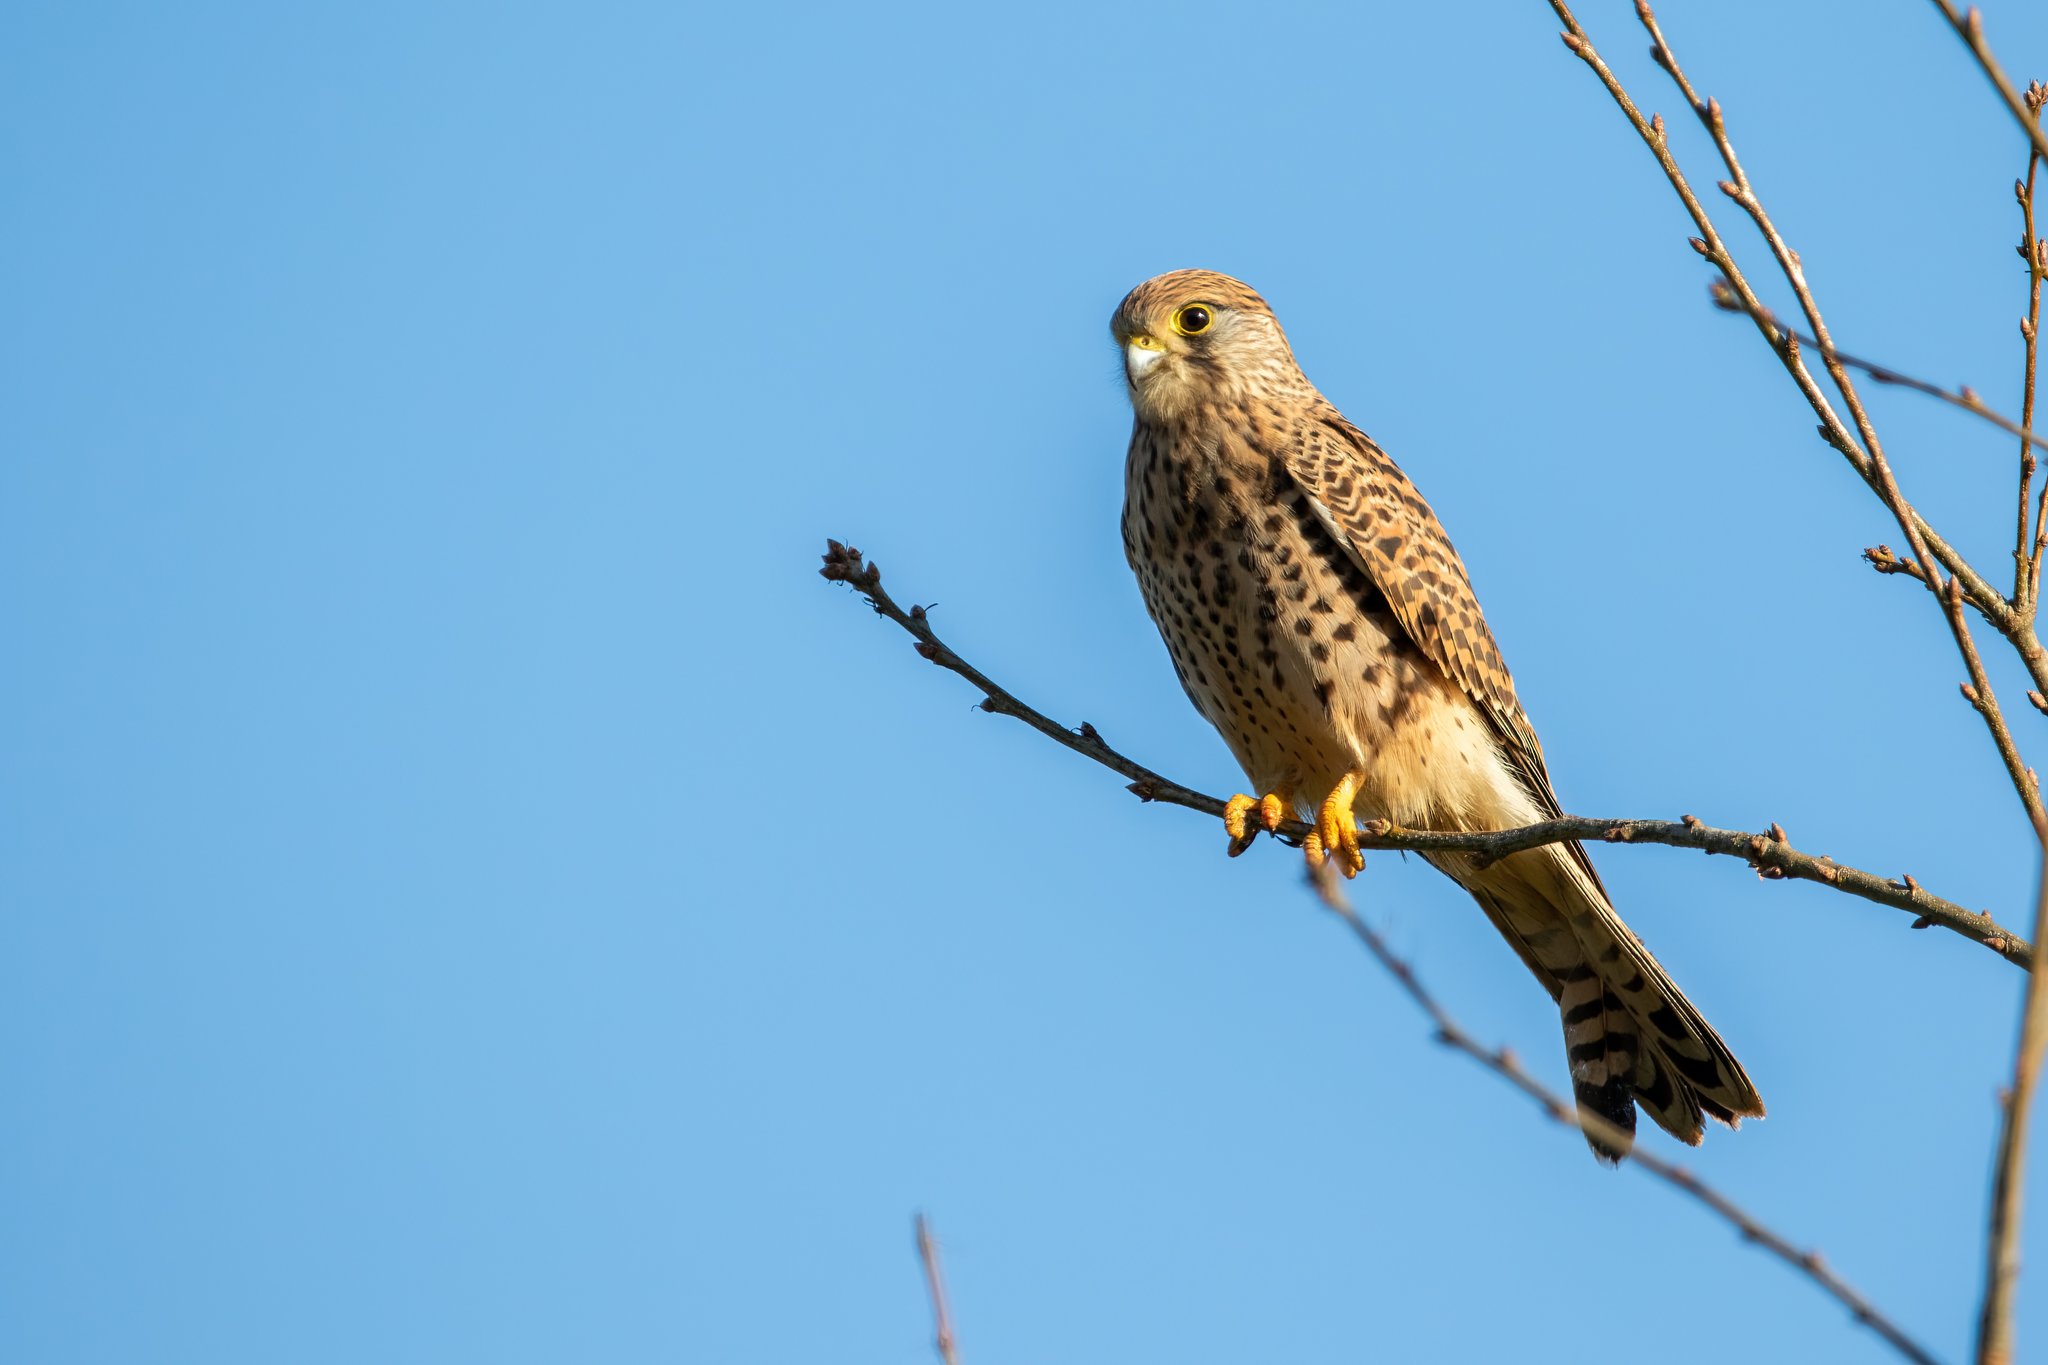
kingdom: Animalia
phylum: Chordata
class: Aves
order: Falconiformes
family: Falconidae
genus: Falco
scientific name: Falco tinnunculus
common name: Common kestrel
